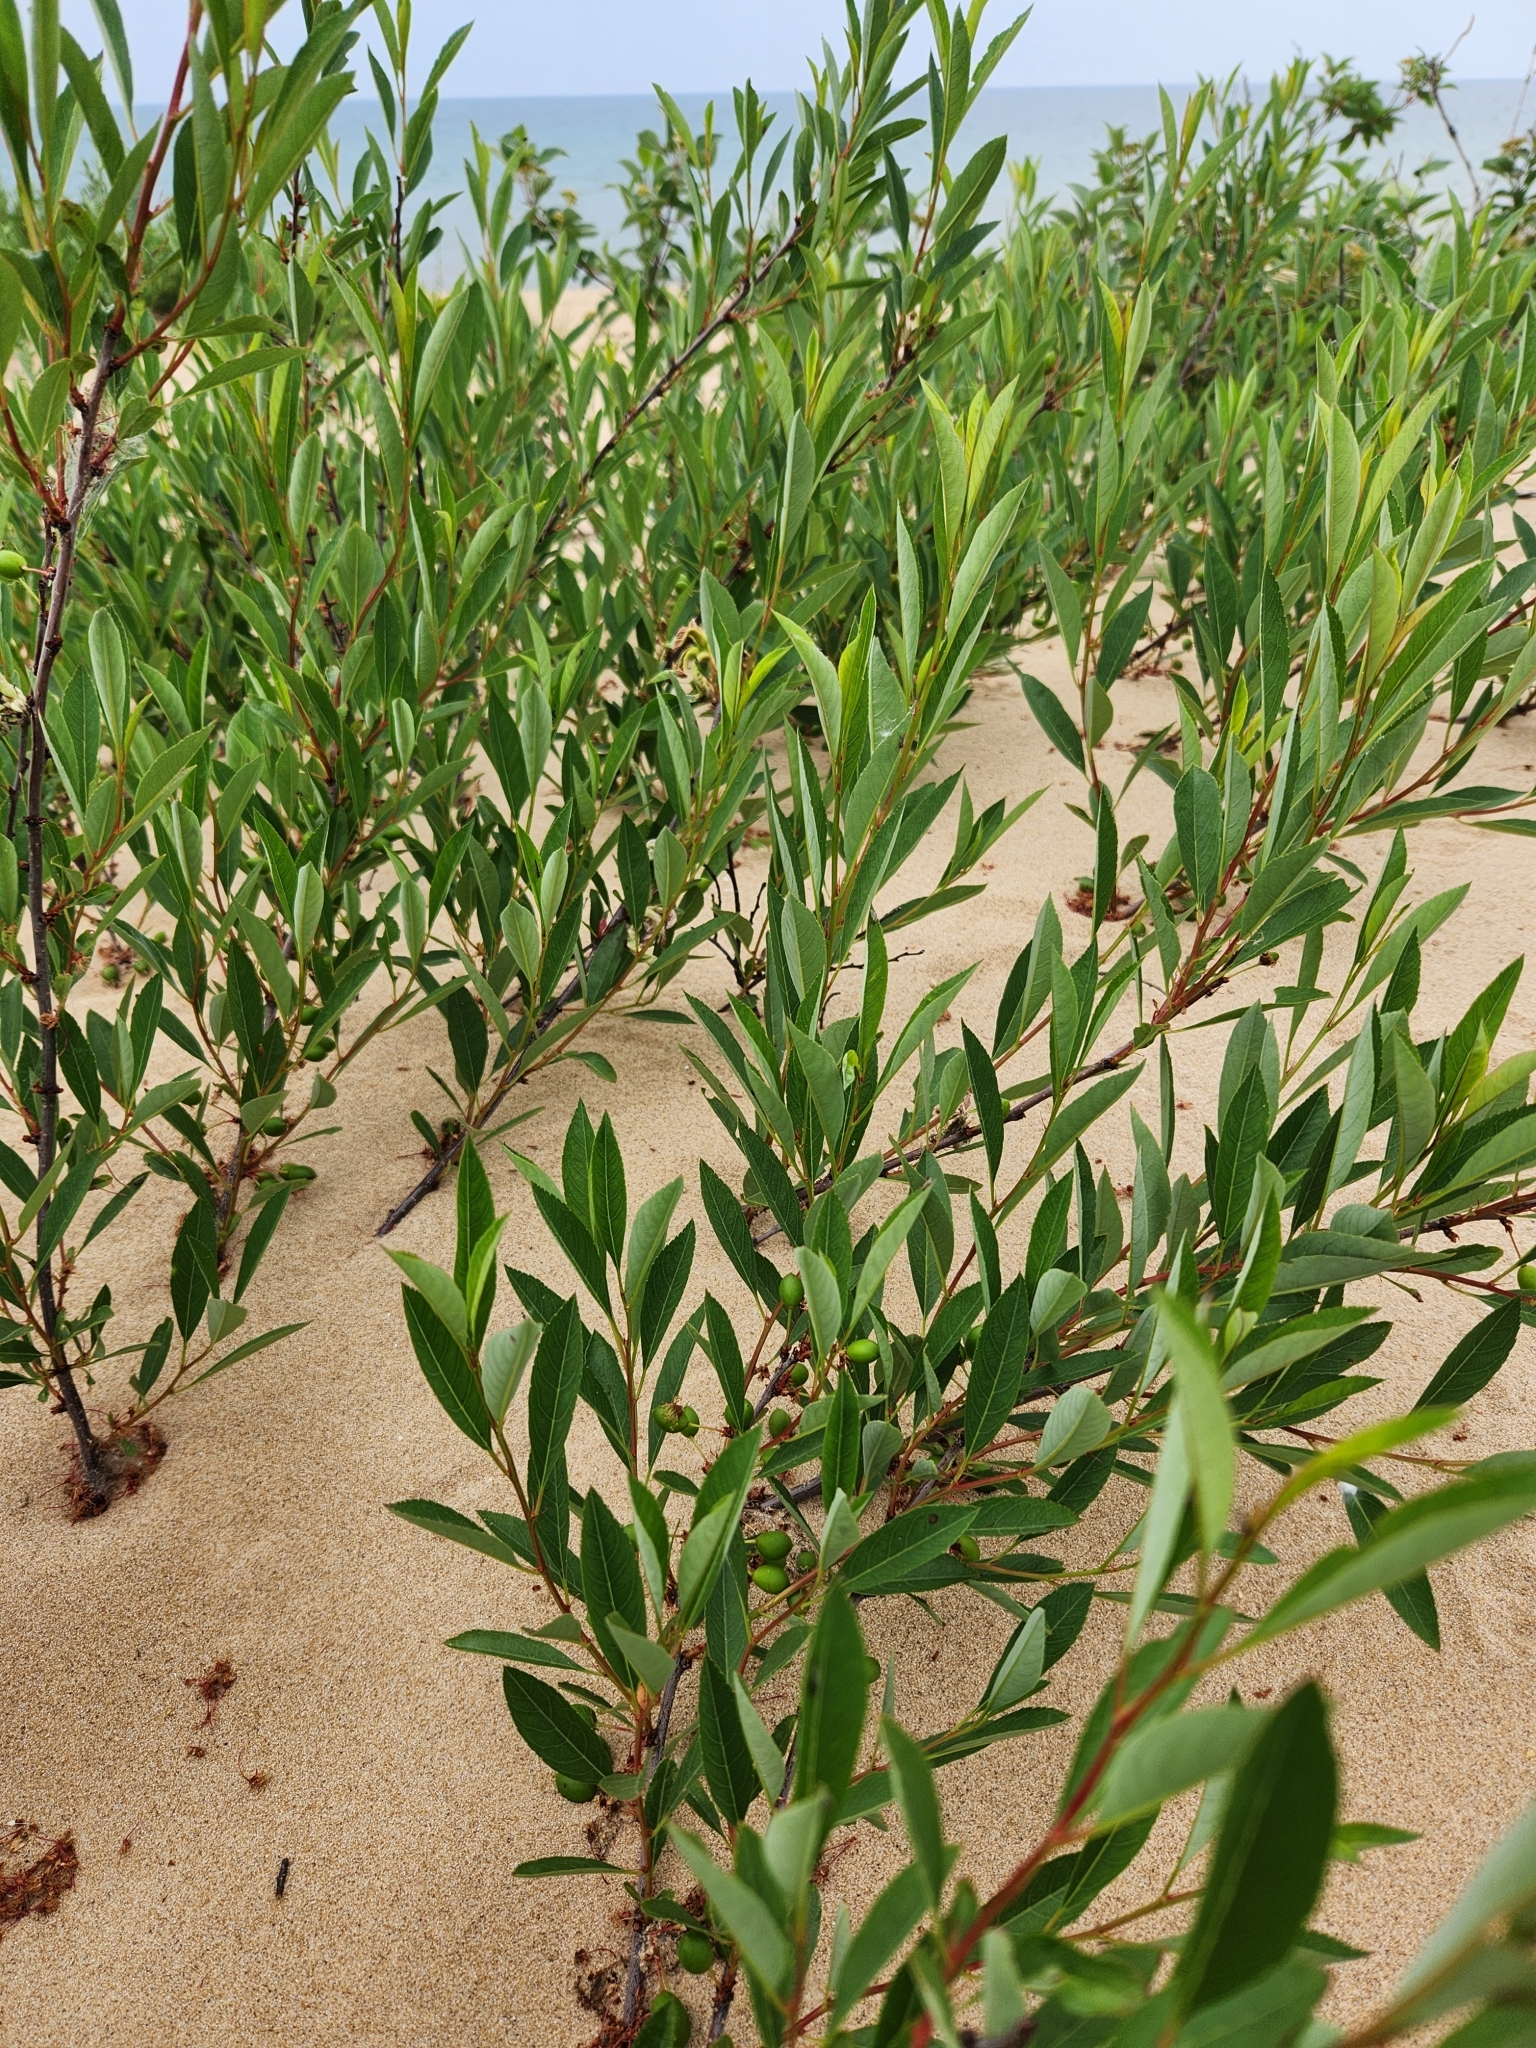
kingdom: Plantae
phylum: Tracheophyta
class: Magnoliopsida
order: Rosales
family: Rosaceae
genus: Prunus
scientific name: Prunus pumila
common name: Dwarf cherry
